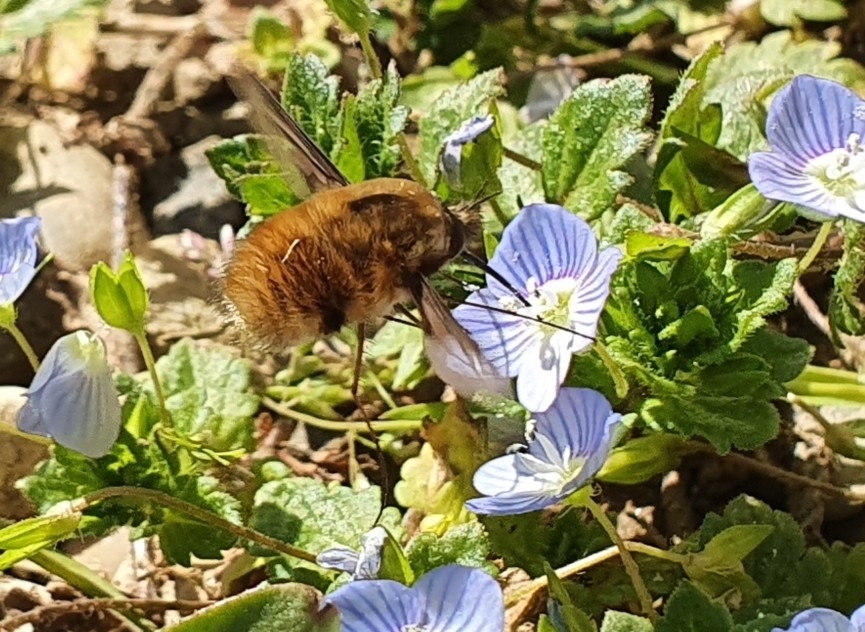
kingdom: Animalia
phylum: Arthropoda
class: Insecta
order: Diptera
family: Bombyliidae
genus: Bombylius
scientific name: Bombylius major
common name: Bee fly
